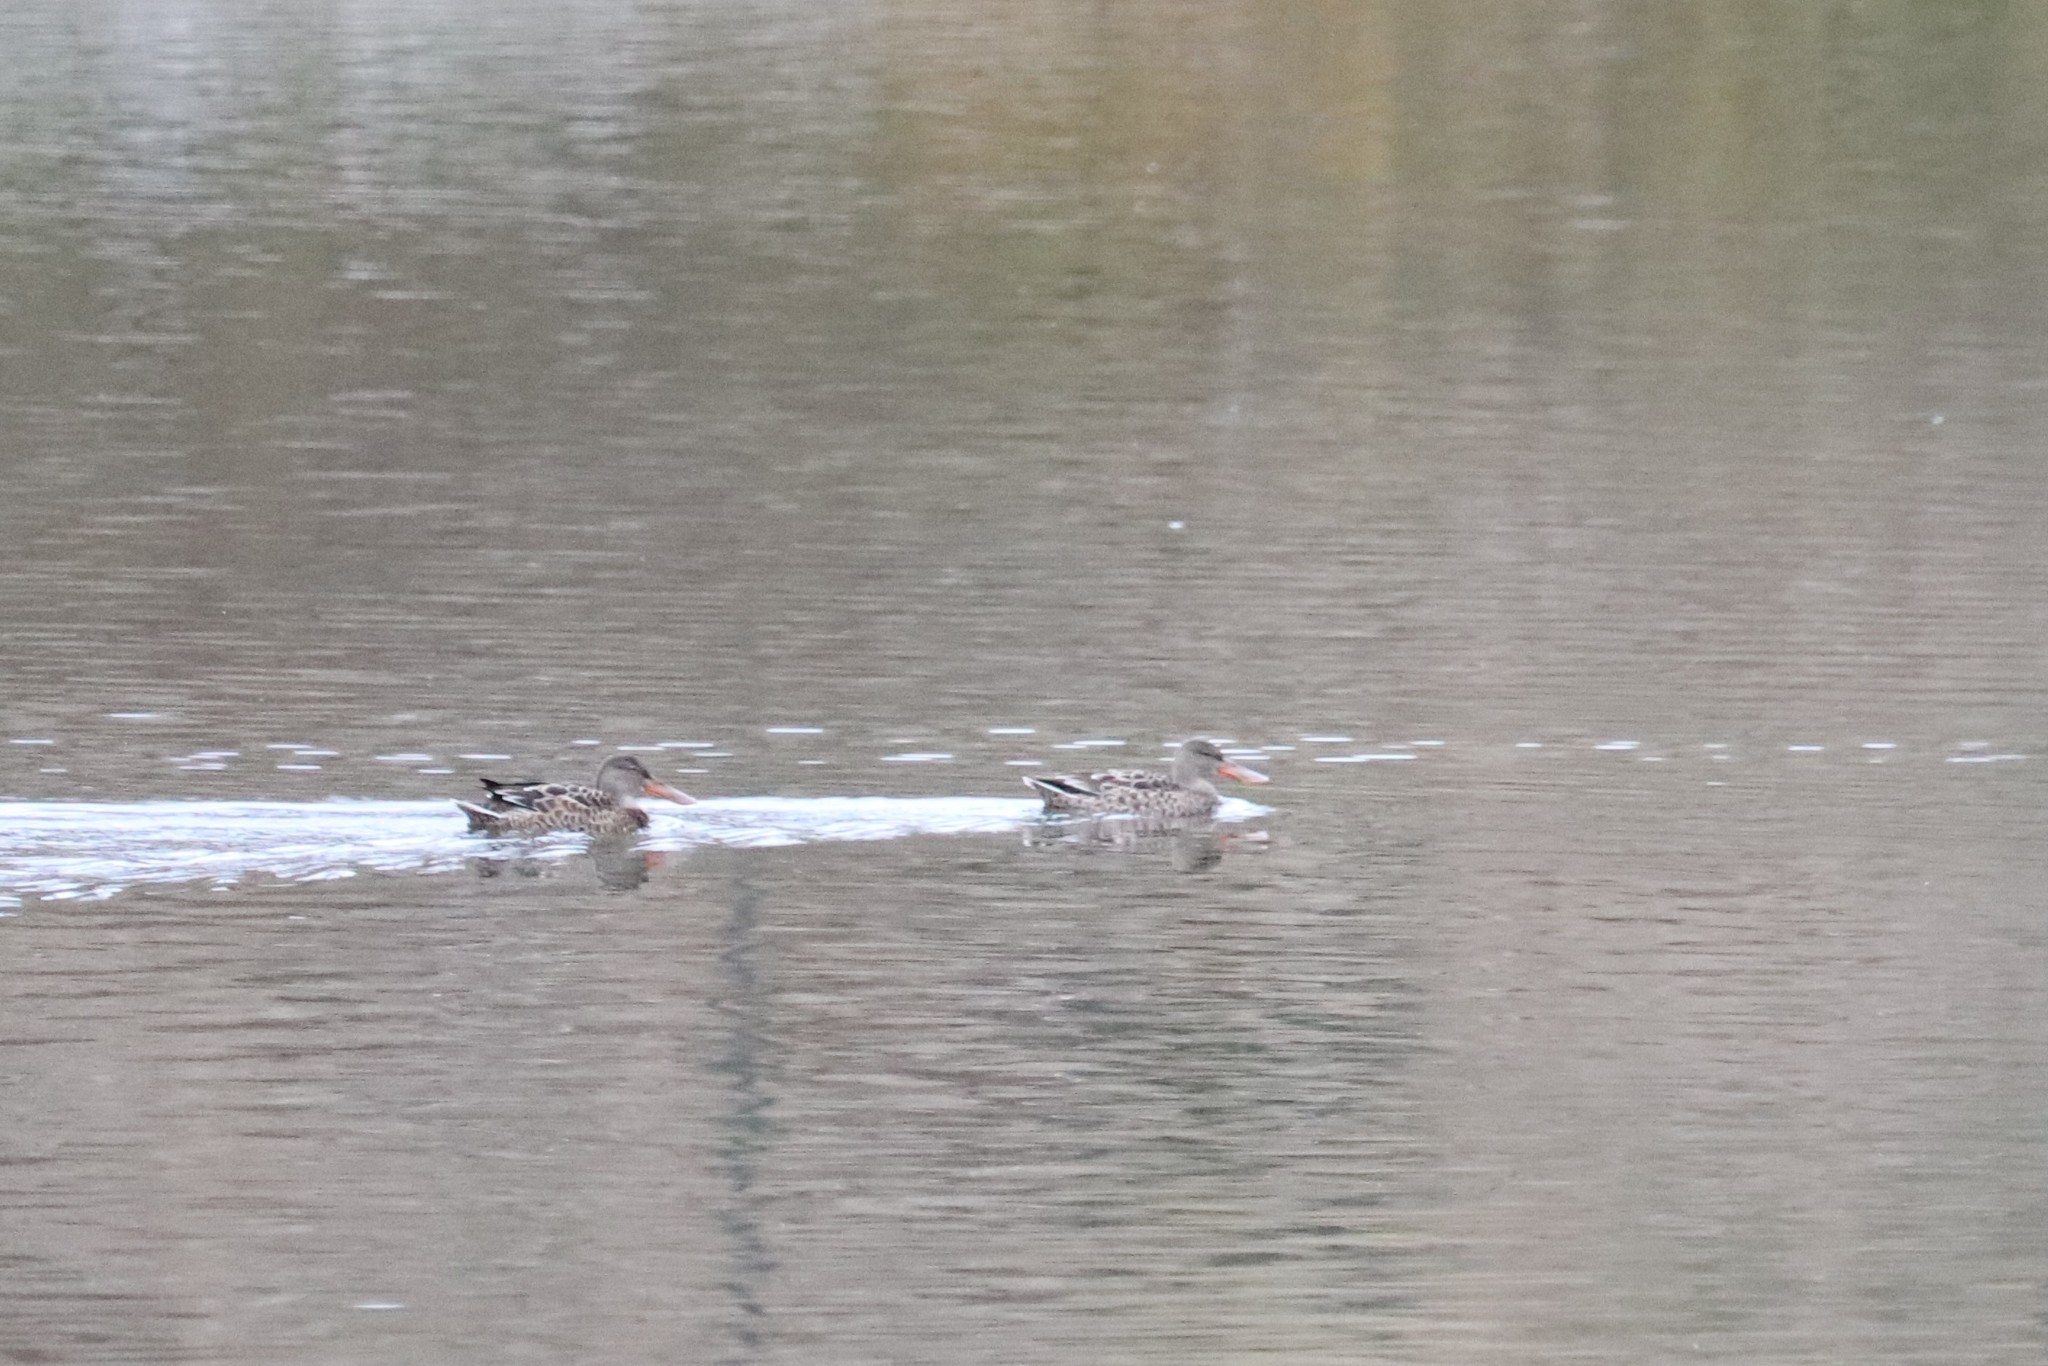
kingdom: Animalia
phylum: Chordata
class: Aves
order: Anseriformes
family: Anatidae
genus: Spatula
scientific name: Spatula clypeata
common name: Northern shoveler
